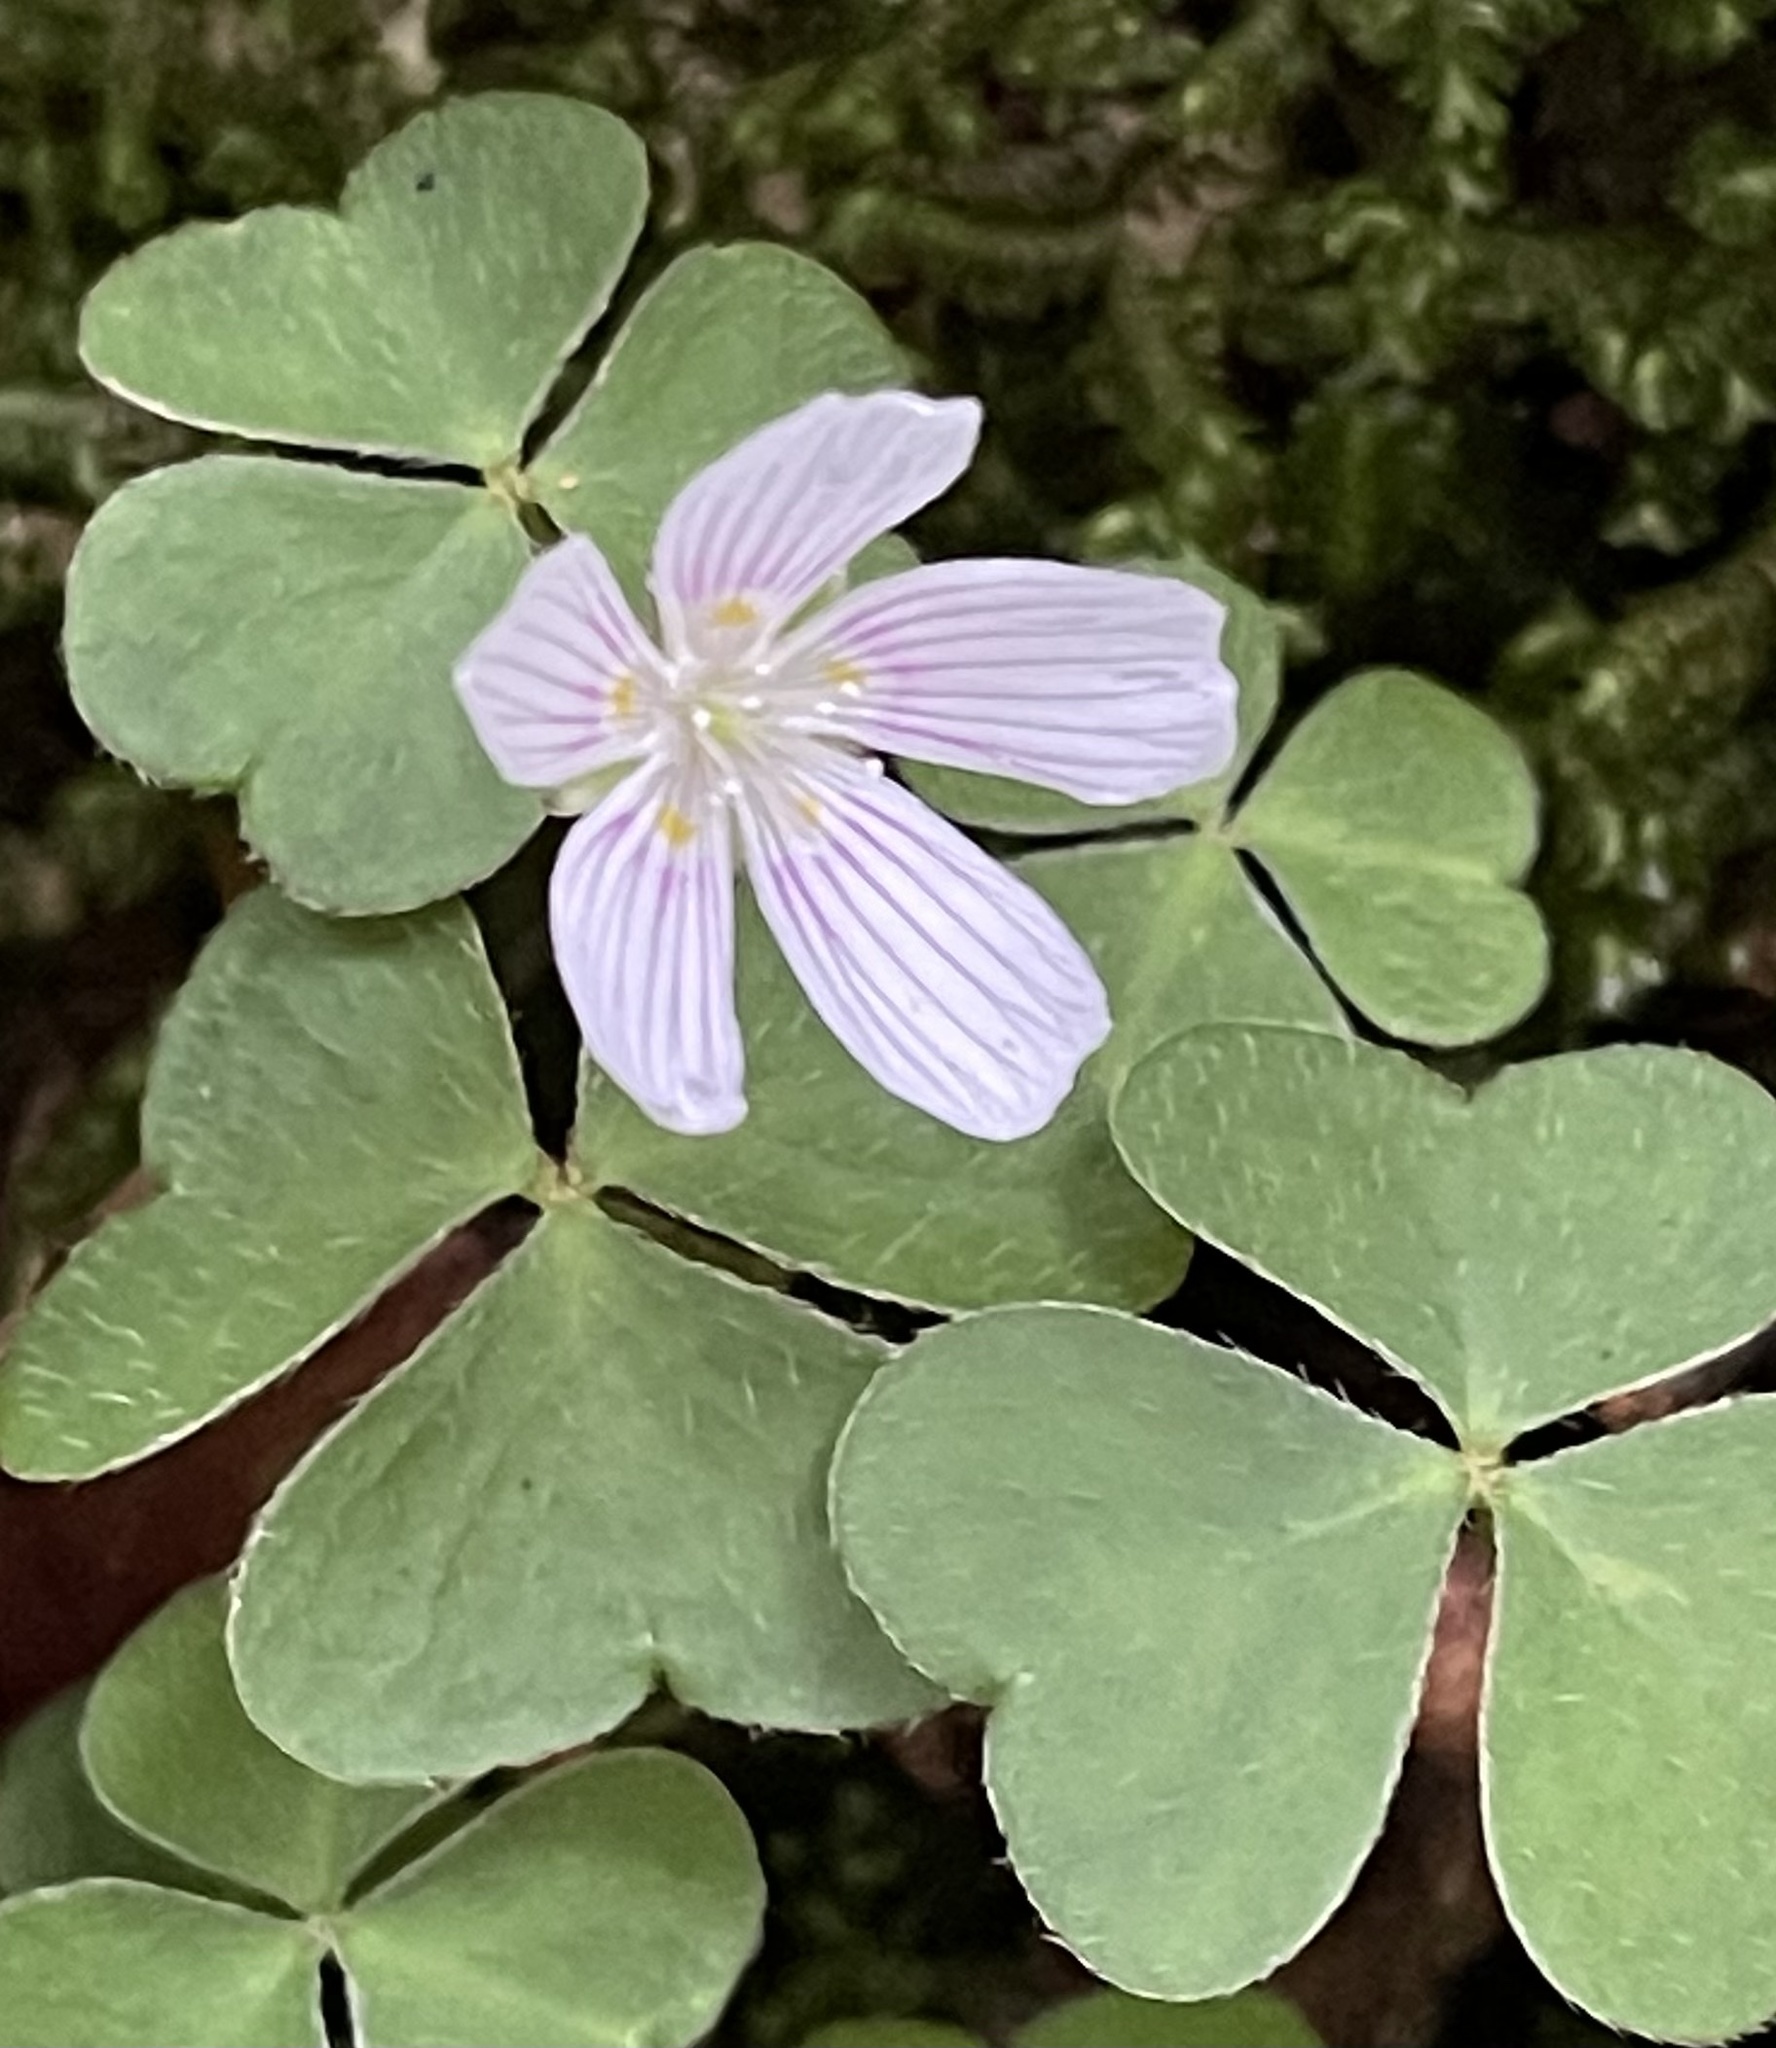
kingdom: Plantae
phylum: Tracheophyta
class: Magnoliopsida
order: Oxalidales
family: Oxalidaceae
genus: Oxalis
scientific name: Oxalis montana
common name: American wood-sorrel
